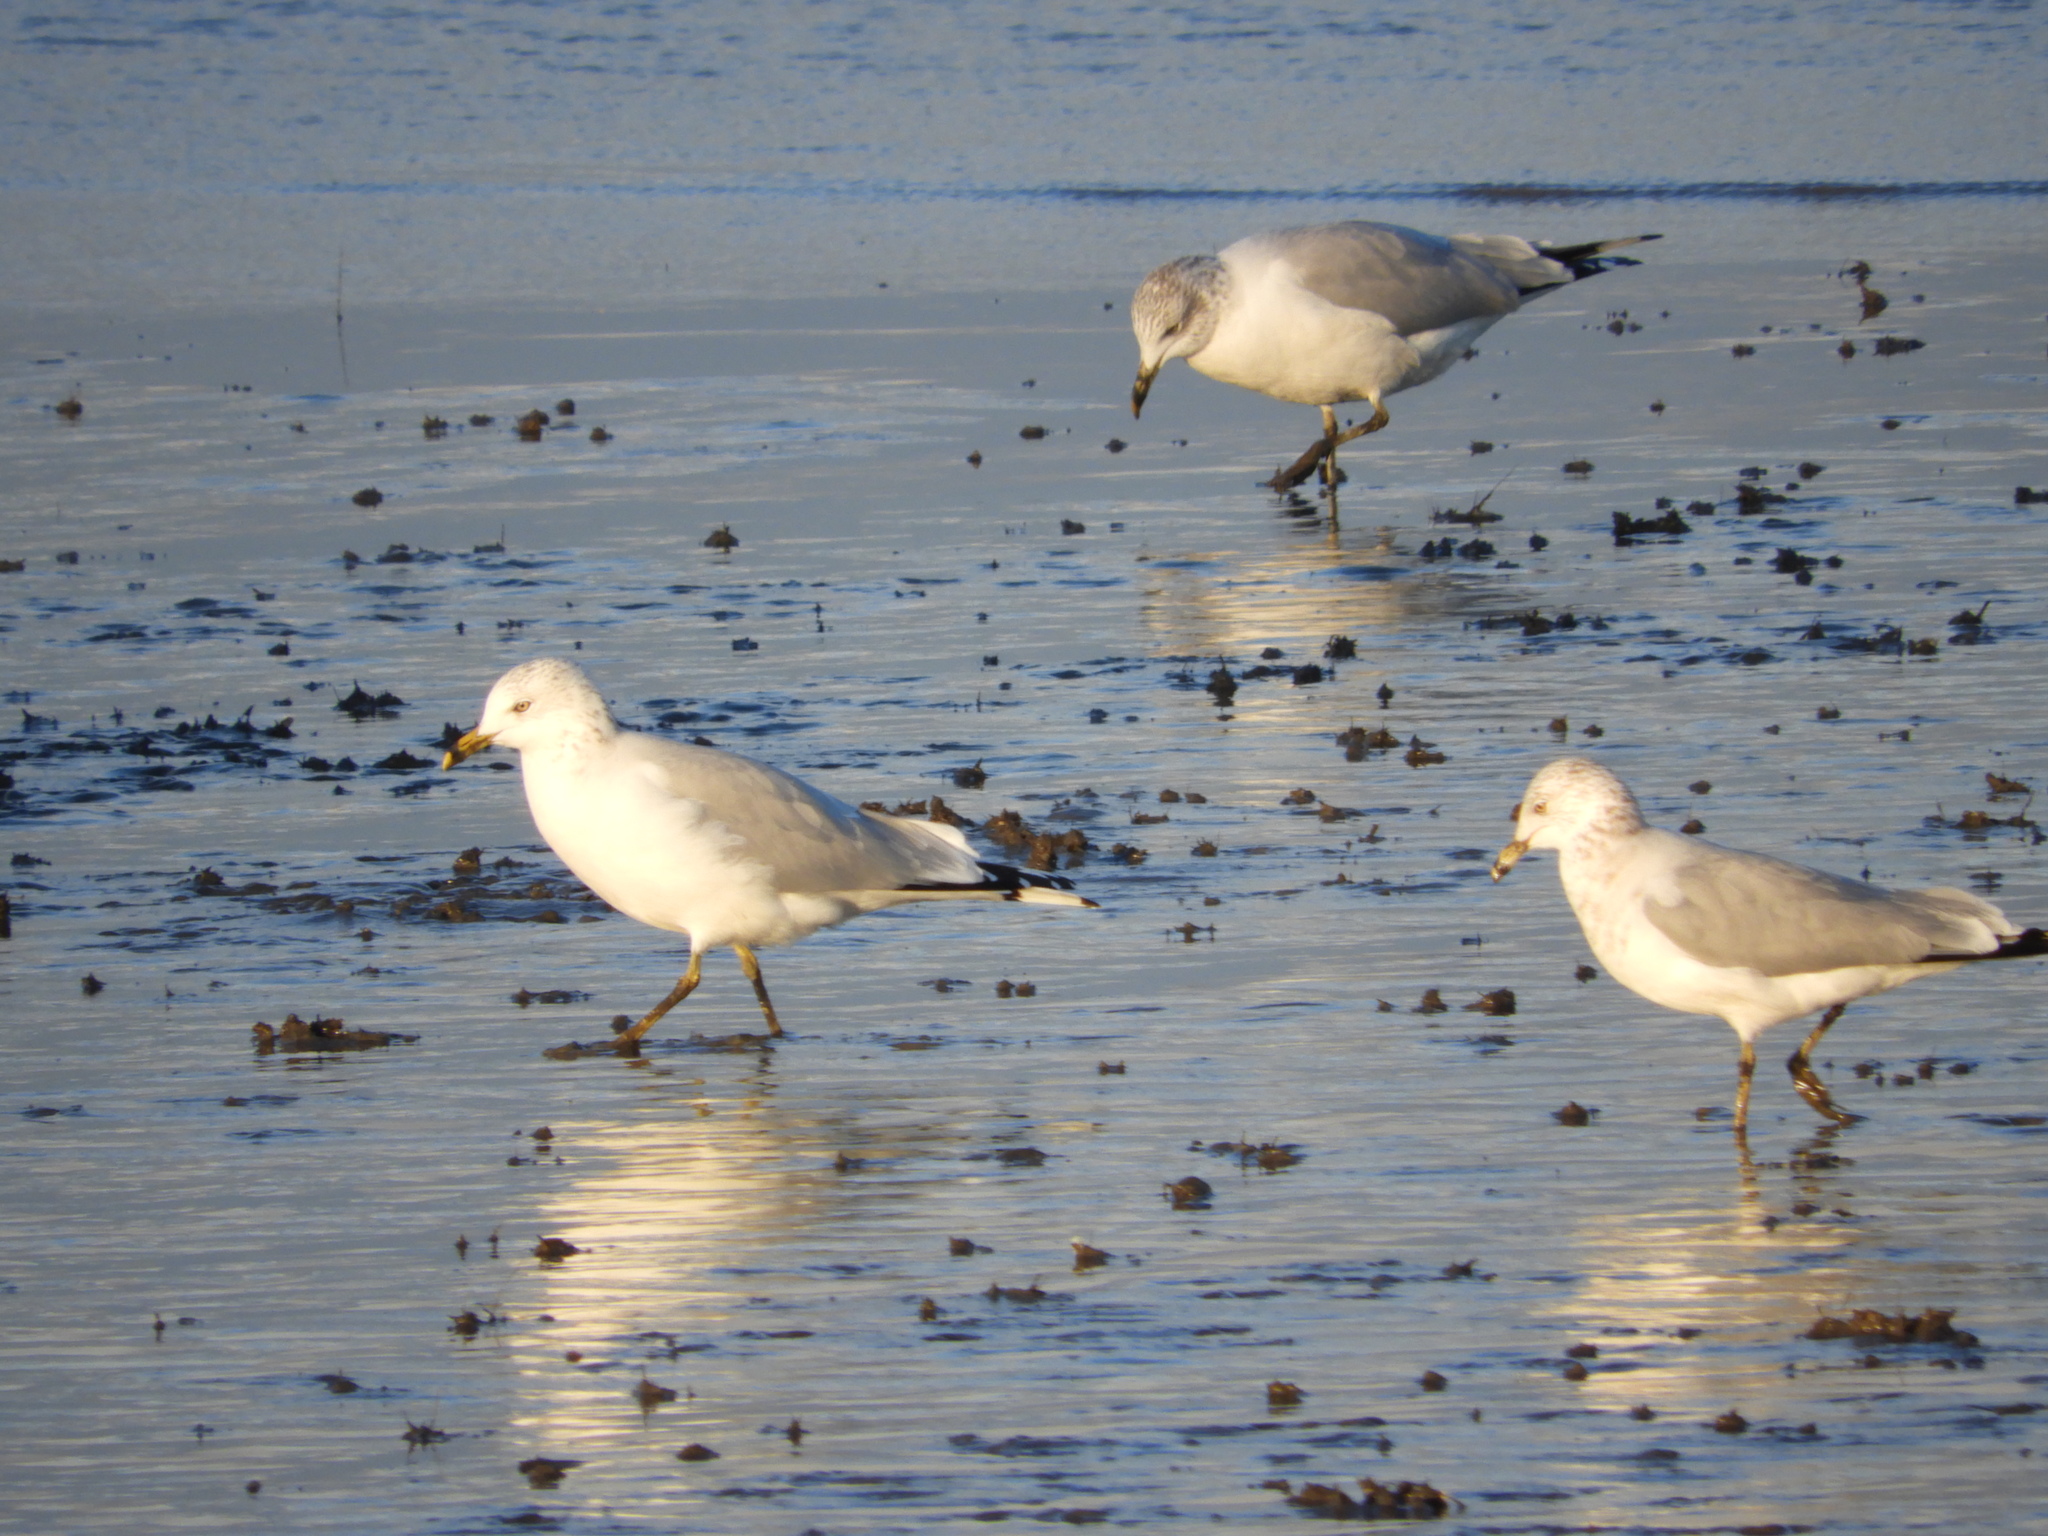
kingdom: Animalia
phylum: Chordata
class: Aves
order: Charadriiformes
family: Laridae
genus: Larus
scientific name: Larus delawarensis
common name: Ring-billed gull
